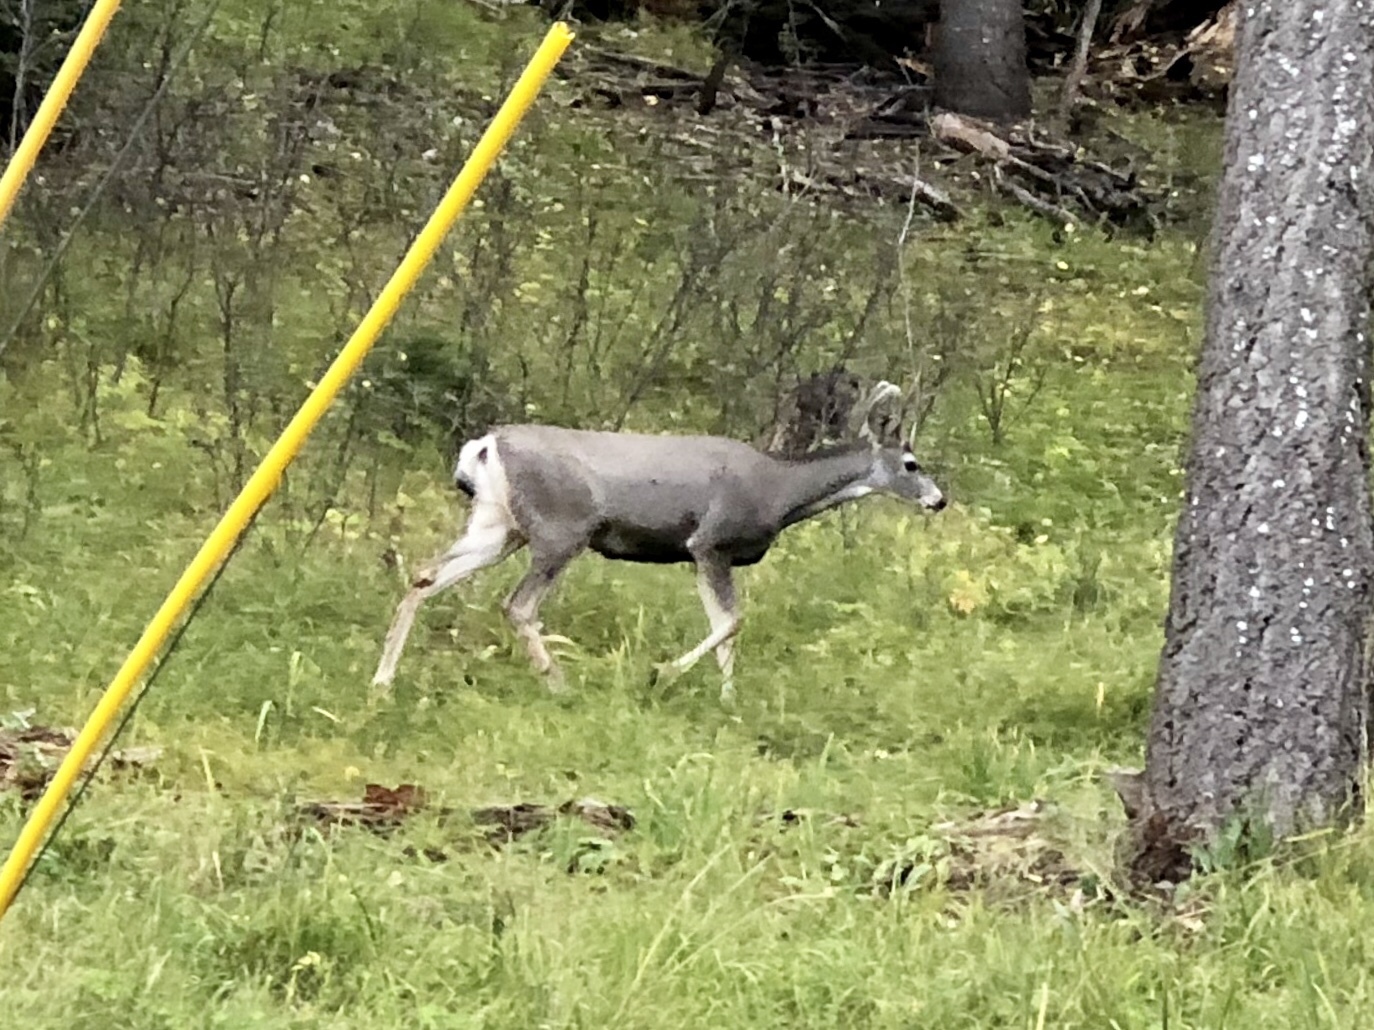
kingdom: Animalia
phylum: Chordata
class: Mammalia
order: Artiodactyla
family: Cervidae
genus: Odocoileus
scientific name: Odocoileus hemionus
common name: Mule deer
